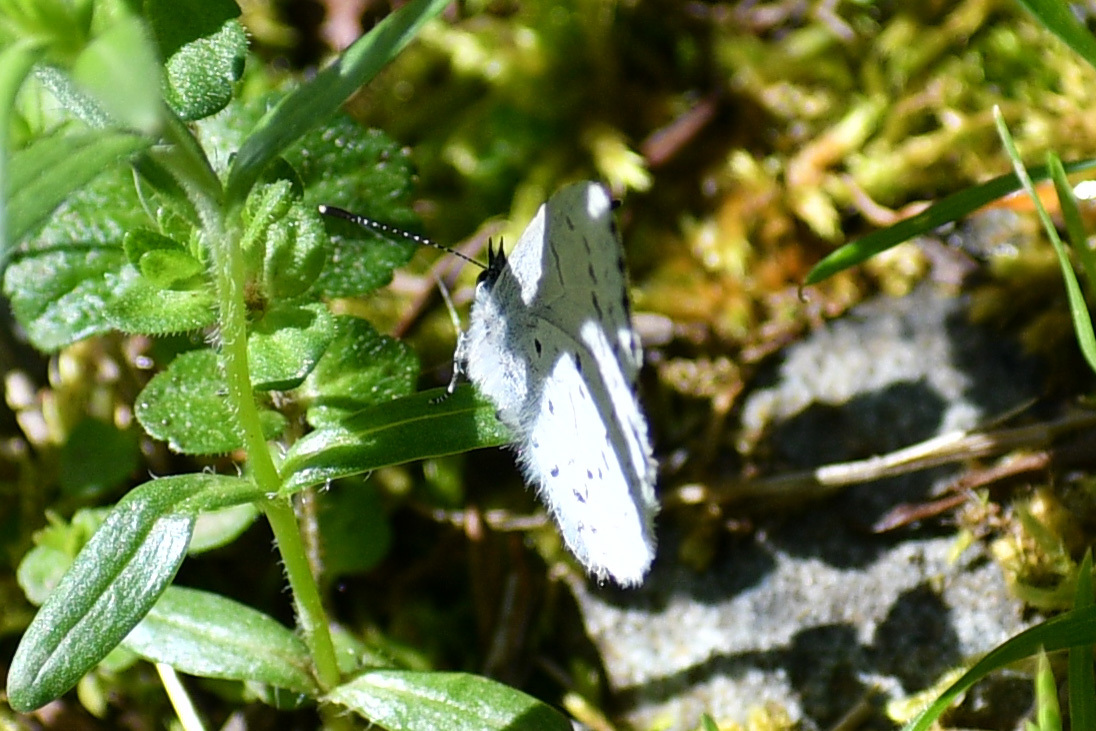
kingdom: Animalia
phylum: Arthropoda
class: Insecta
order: Lepidoptera
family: Lycaenidae
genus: Celastrina
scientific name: Celastrina ladon
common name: Spring azure
